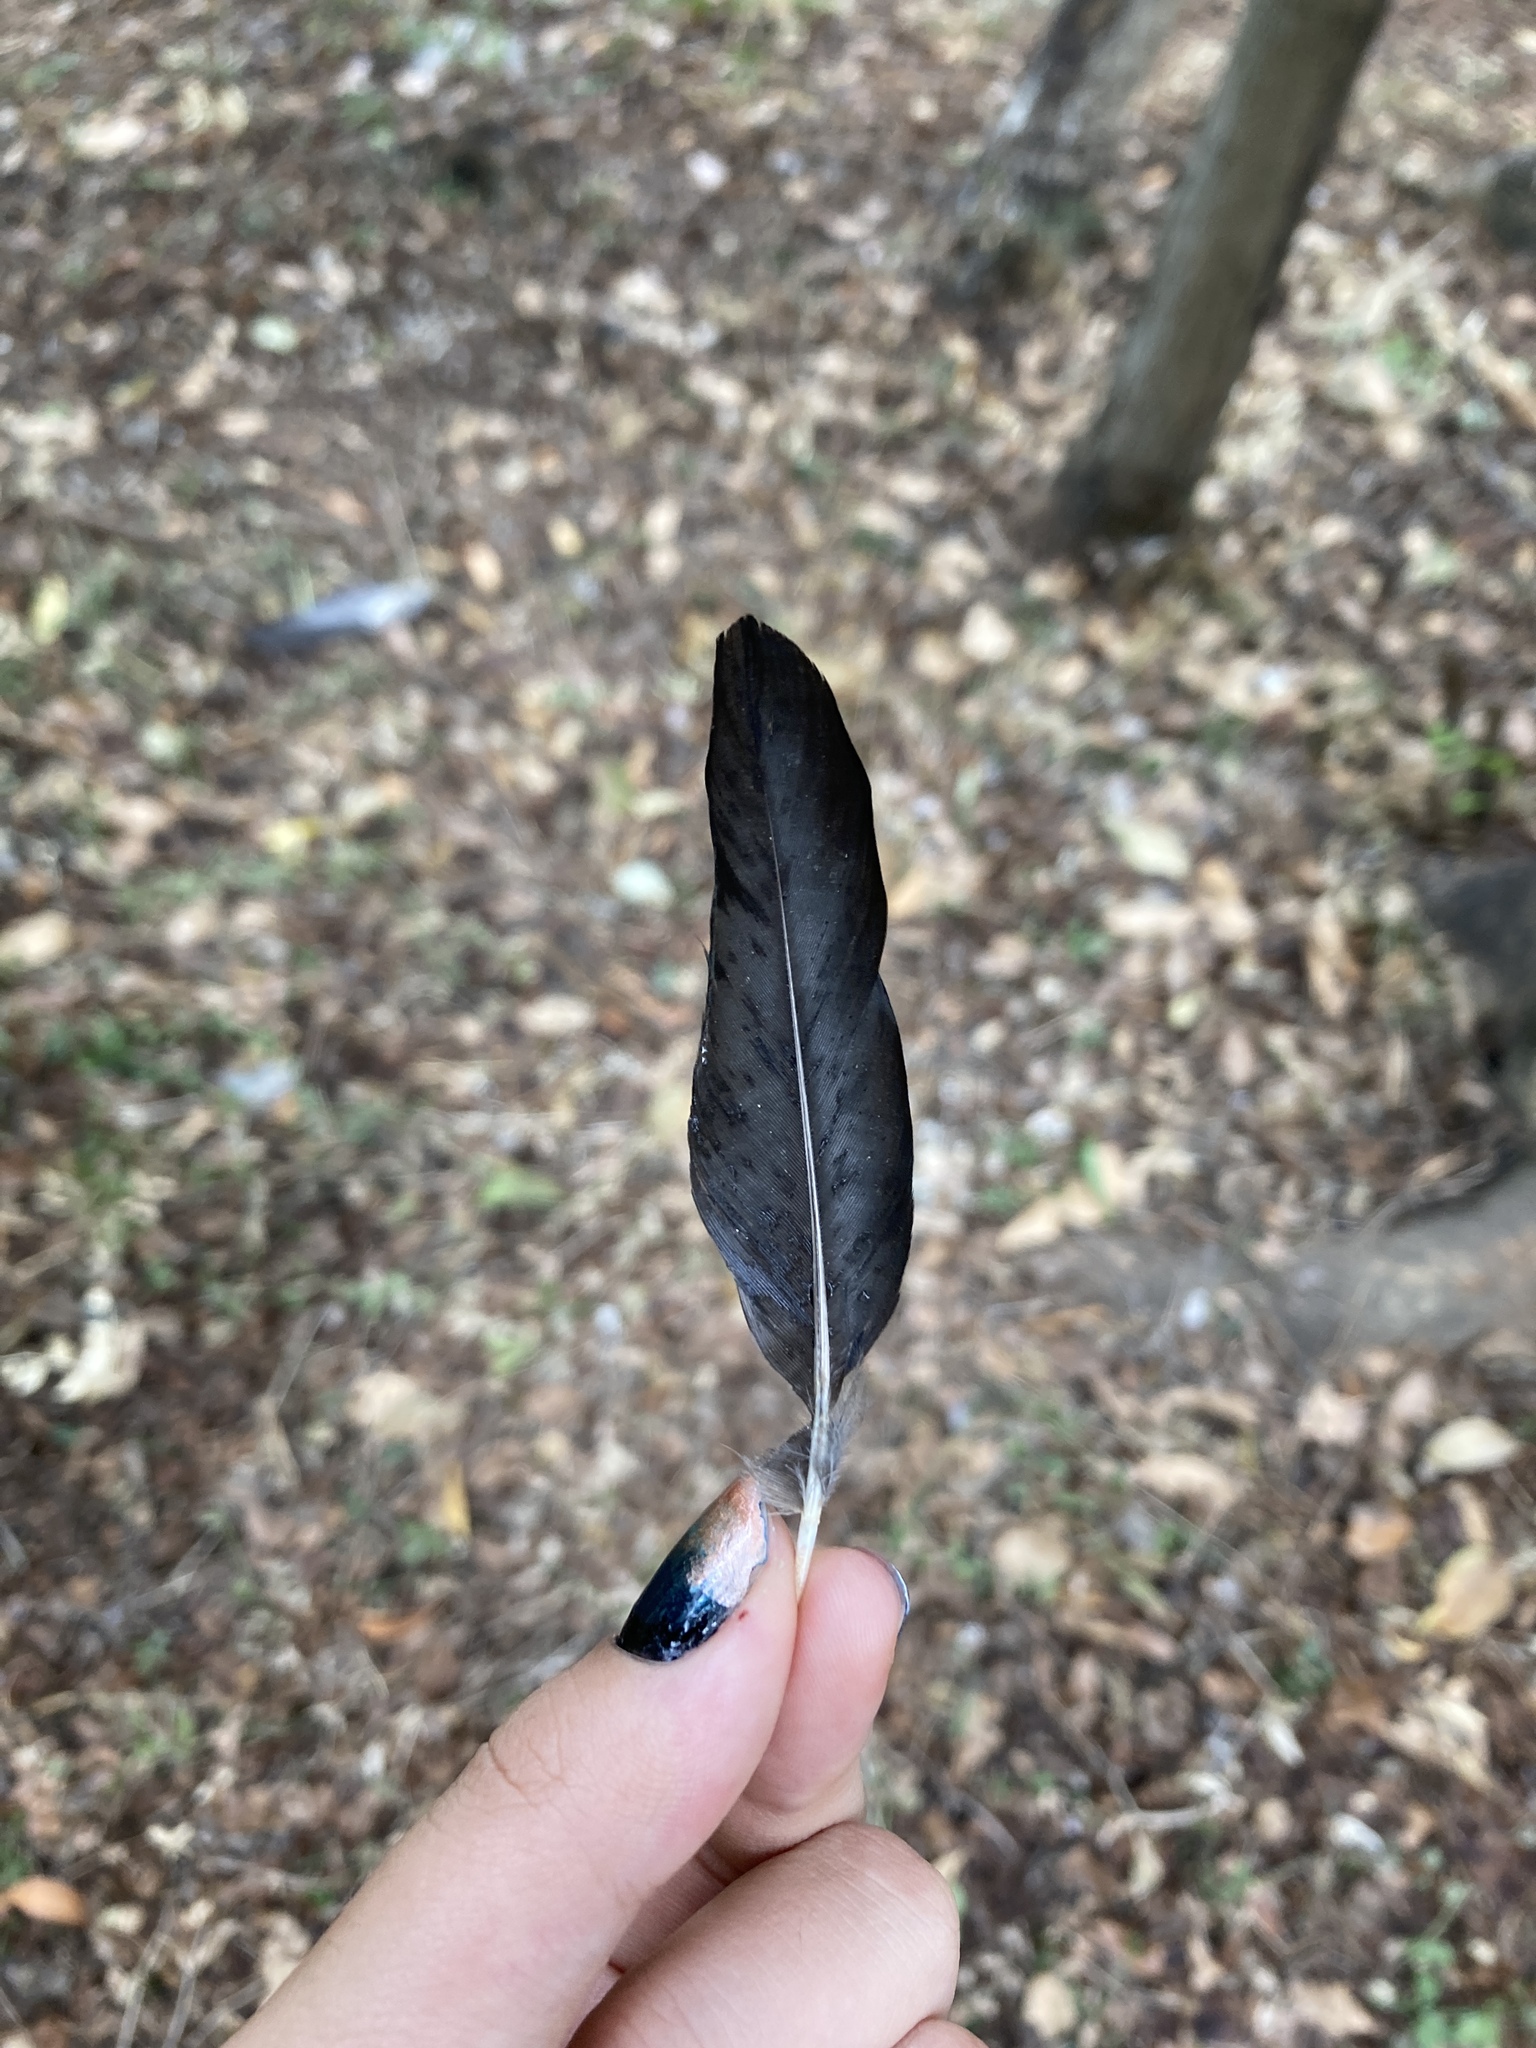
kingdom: Animalia
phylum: Chordata
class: Aves
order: Passeriformes
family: Corvidae
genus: Pica
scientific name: Pica pica
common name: Eurasian magpie
